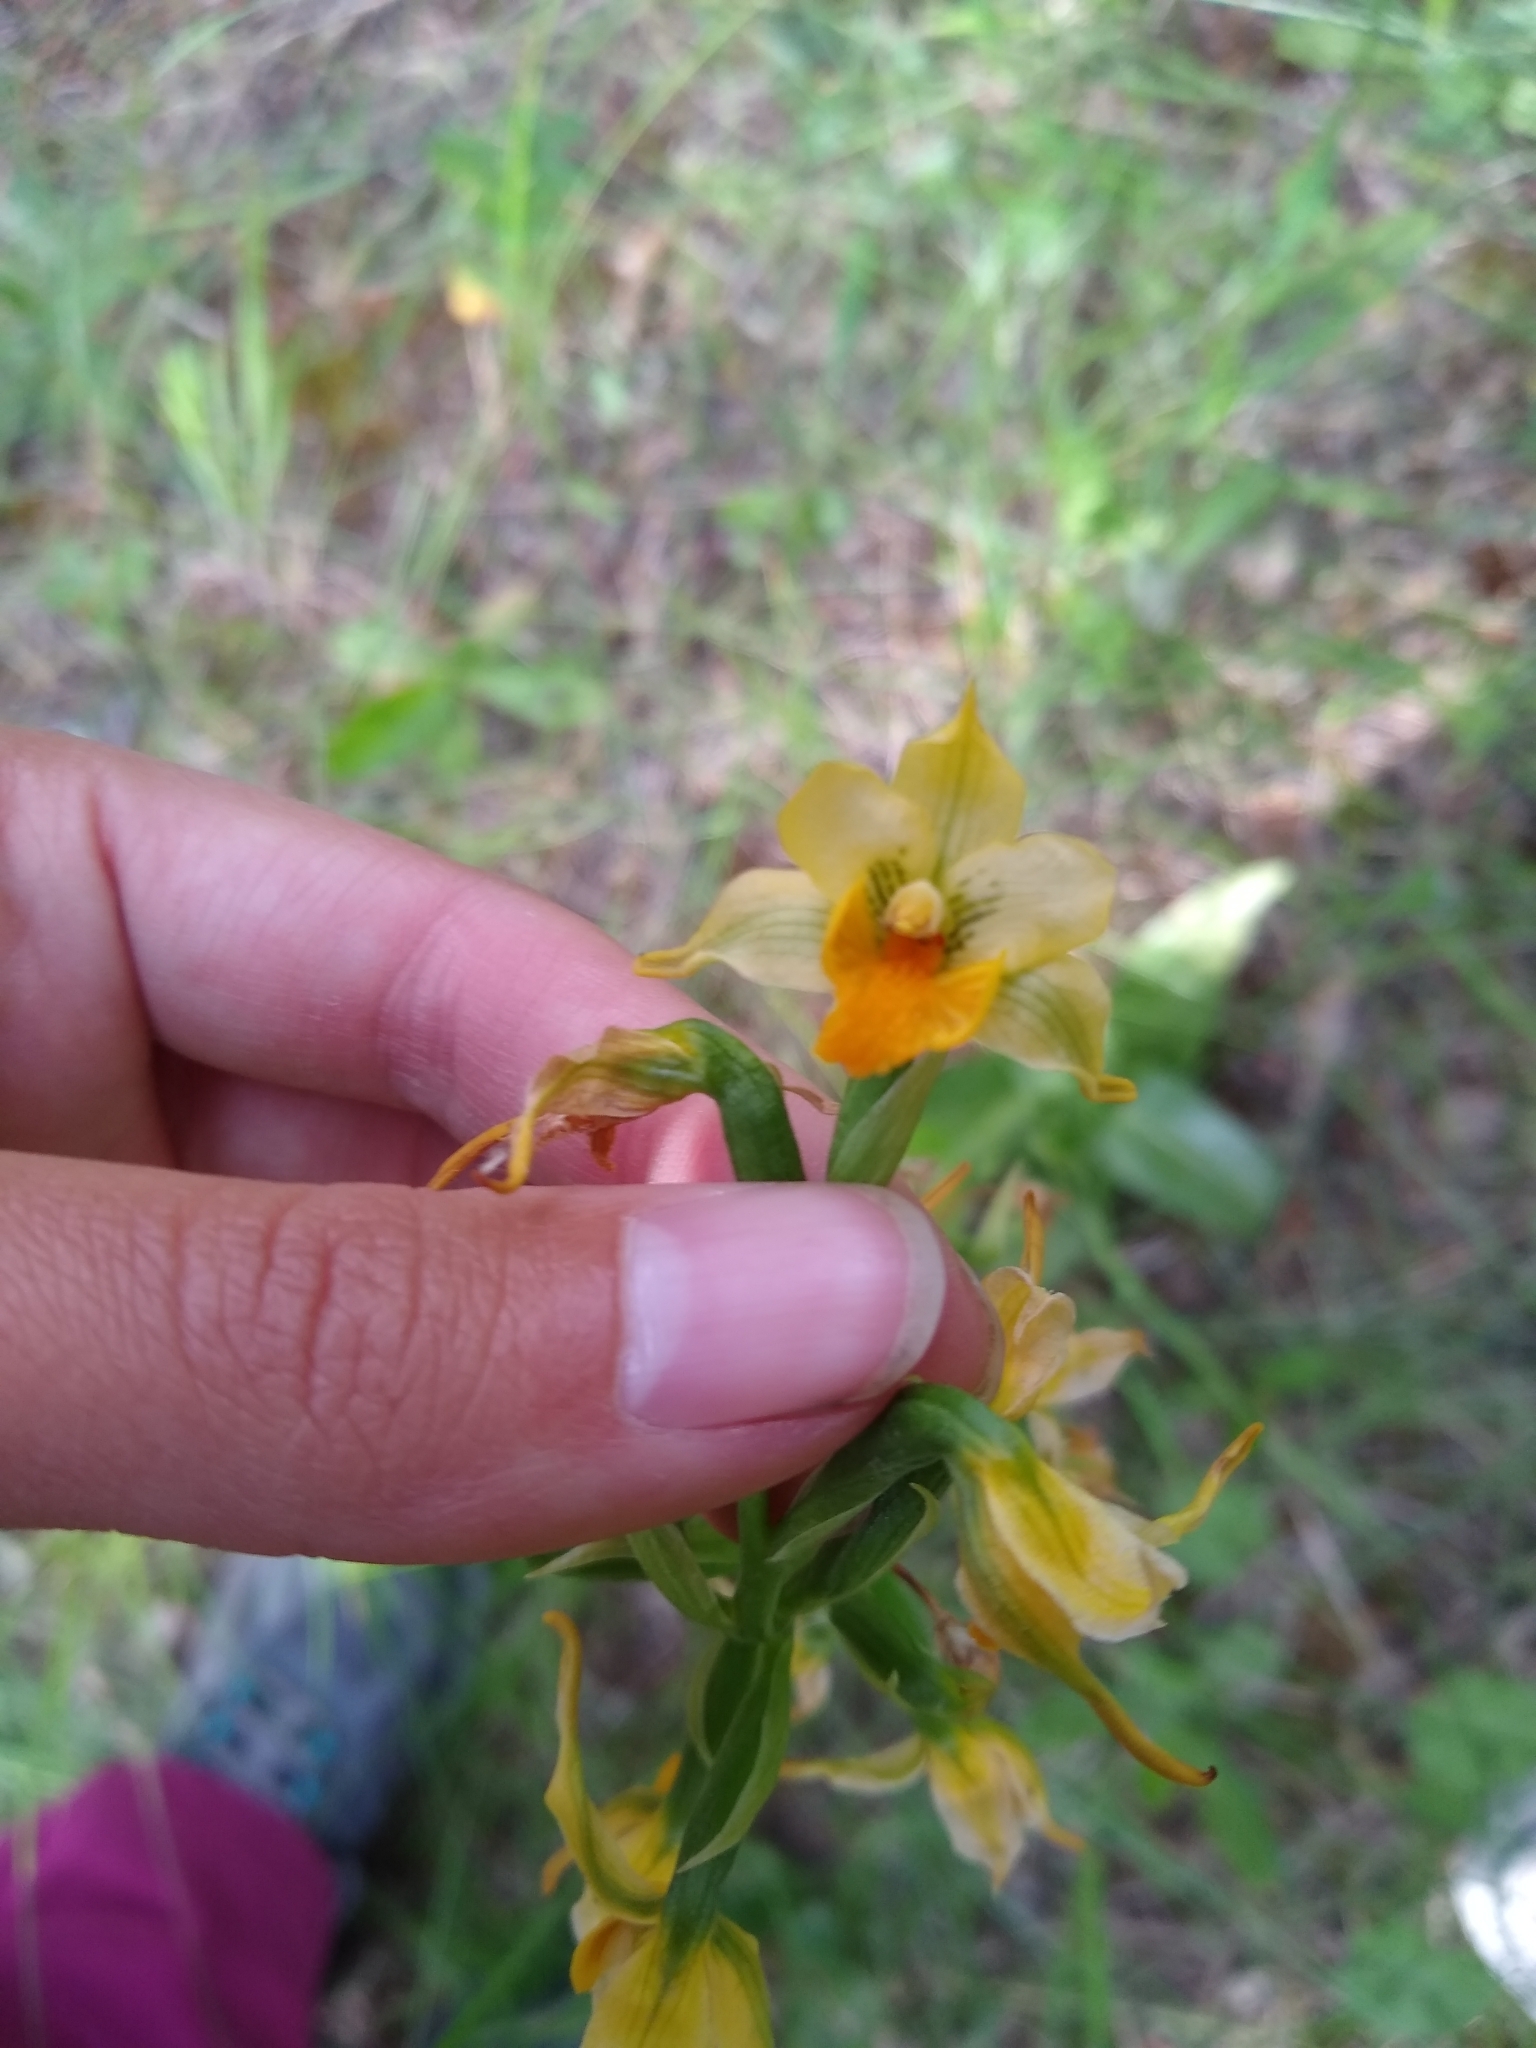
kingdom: Plantae
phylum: Tracheophyta
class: Liliopsida
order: Asparagales
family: Orchidaceae
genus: Gavilea
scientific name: Gavilea odoratissima
